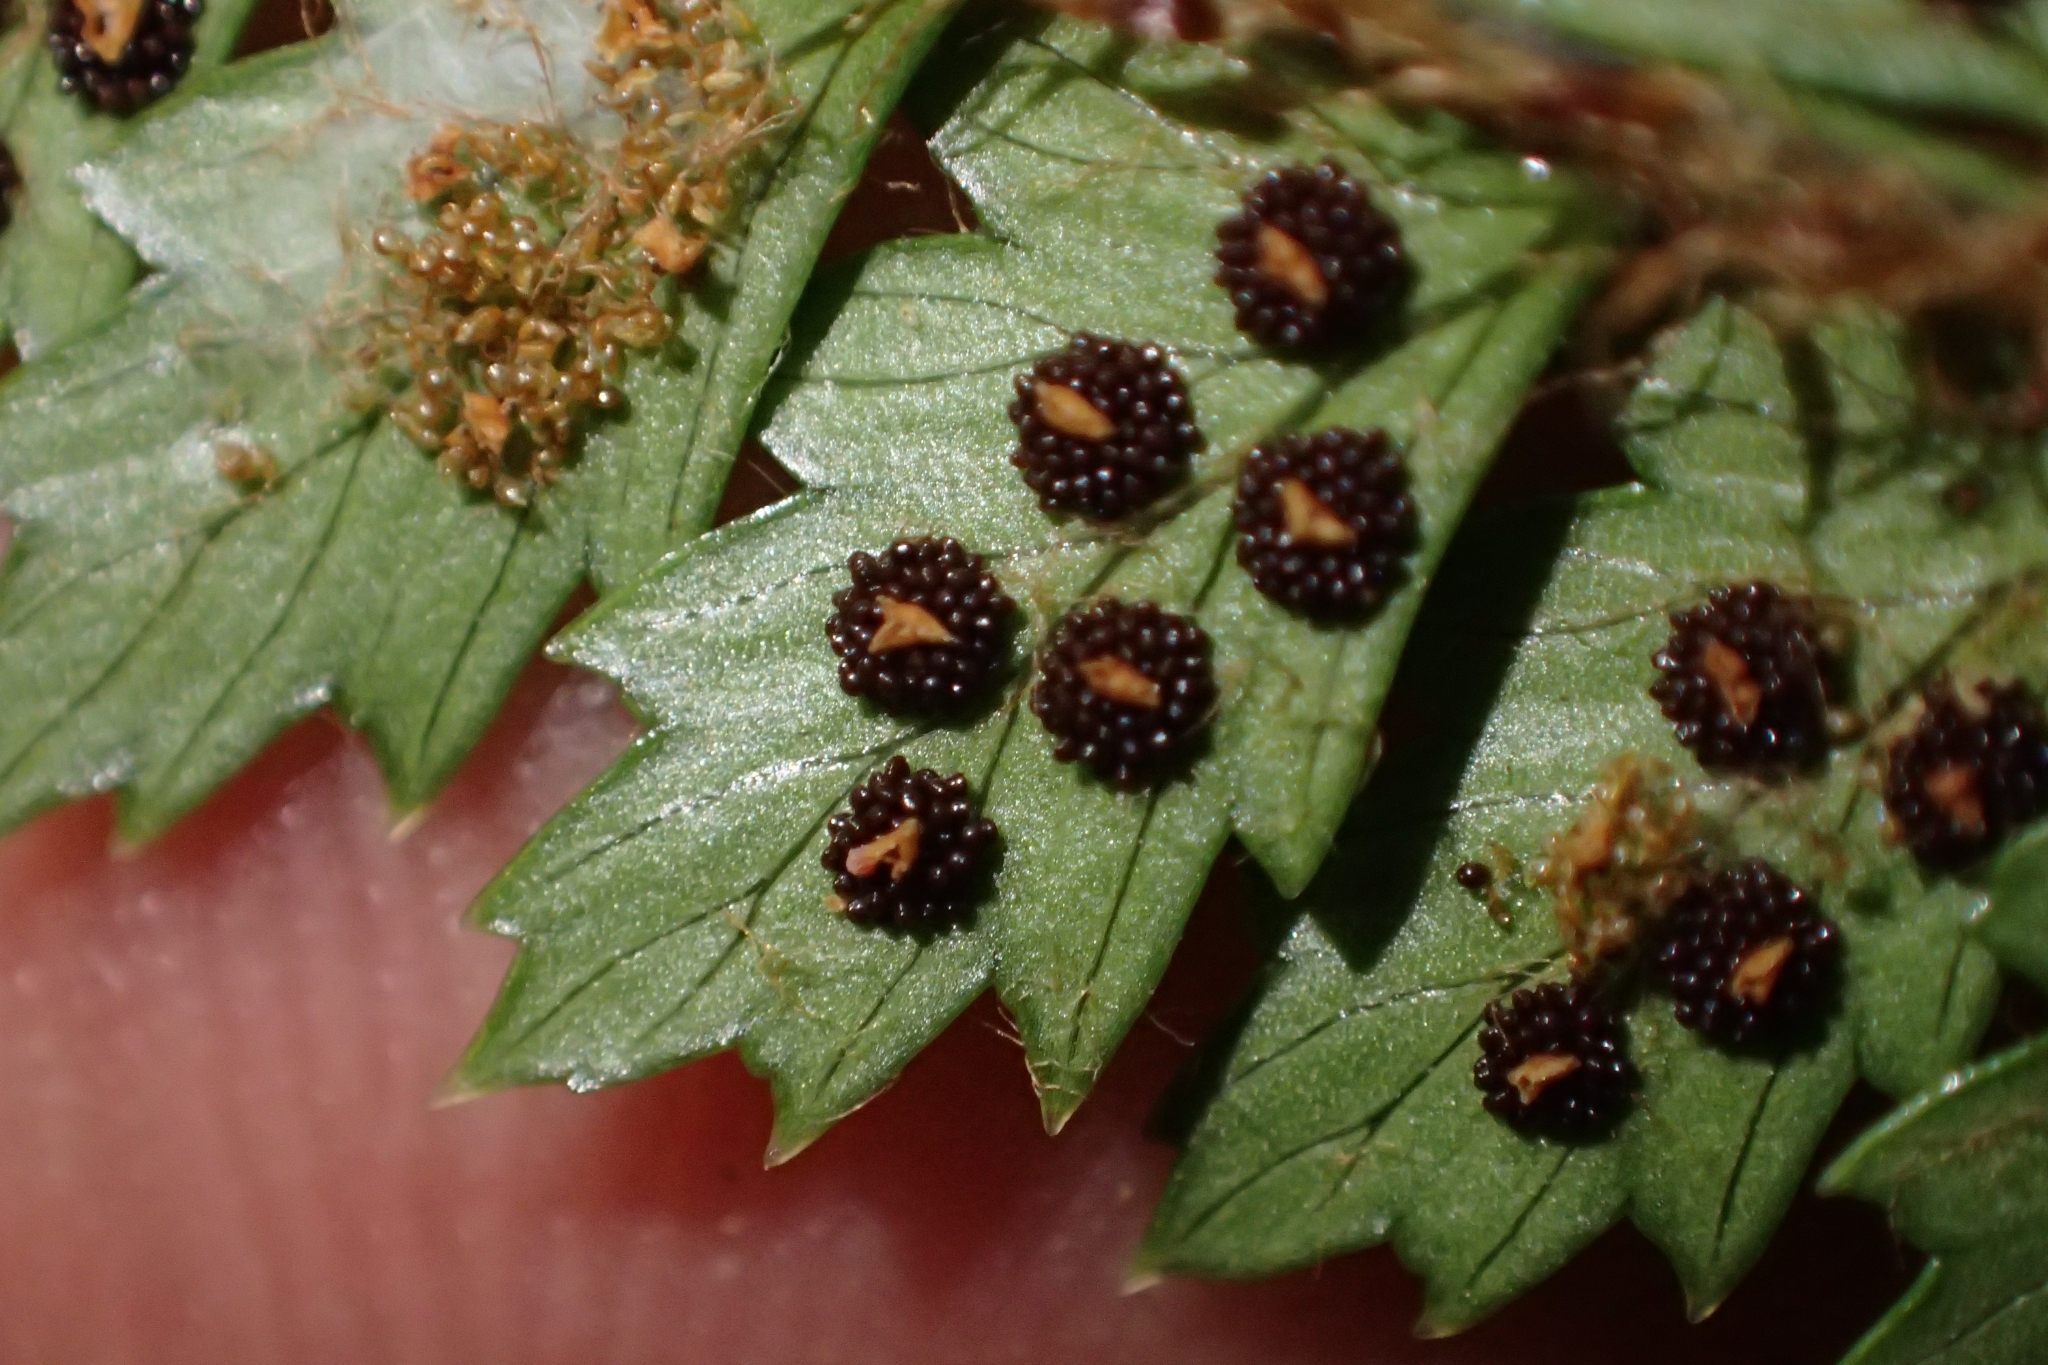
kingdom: Plantae
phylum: Tracheophyta
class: Polypodiopsida
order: Polypodiales
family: Dryopteridaceae
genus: Polystichum
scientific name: Polystichum vestitum
